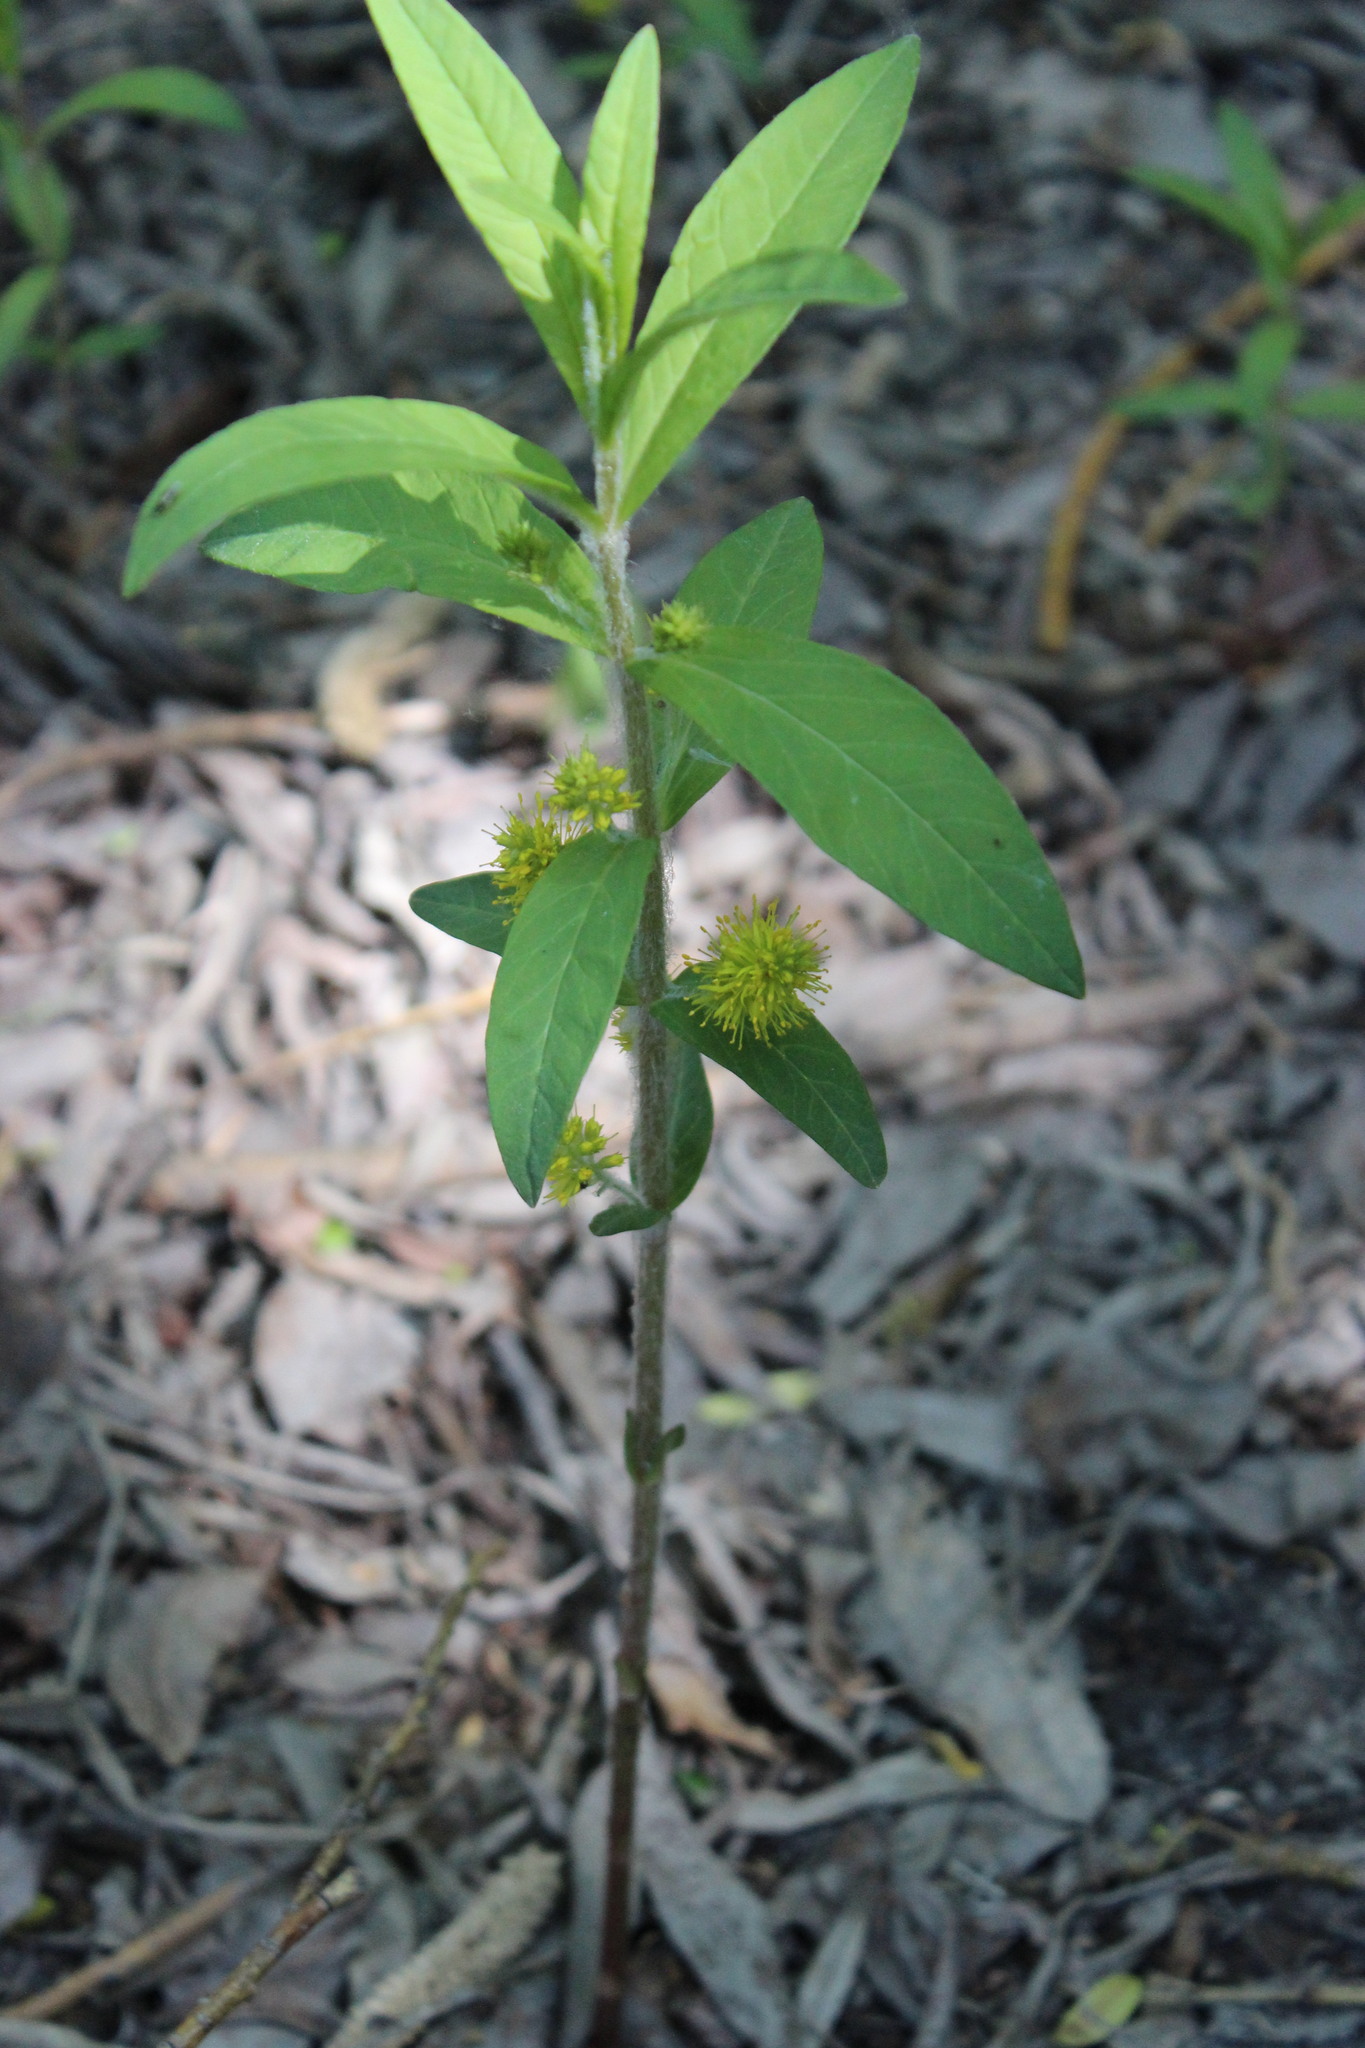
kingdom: Plantae
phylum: Tracheophyta
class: Magnoliopsida
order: Ericales
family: Primulaceae
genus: Lysimachia
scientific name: Lysimachia thyrsiflora
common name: Tufted loosestrife
